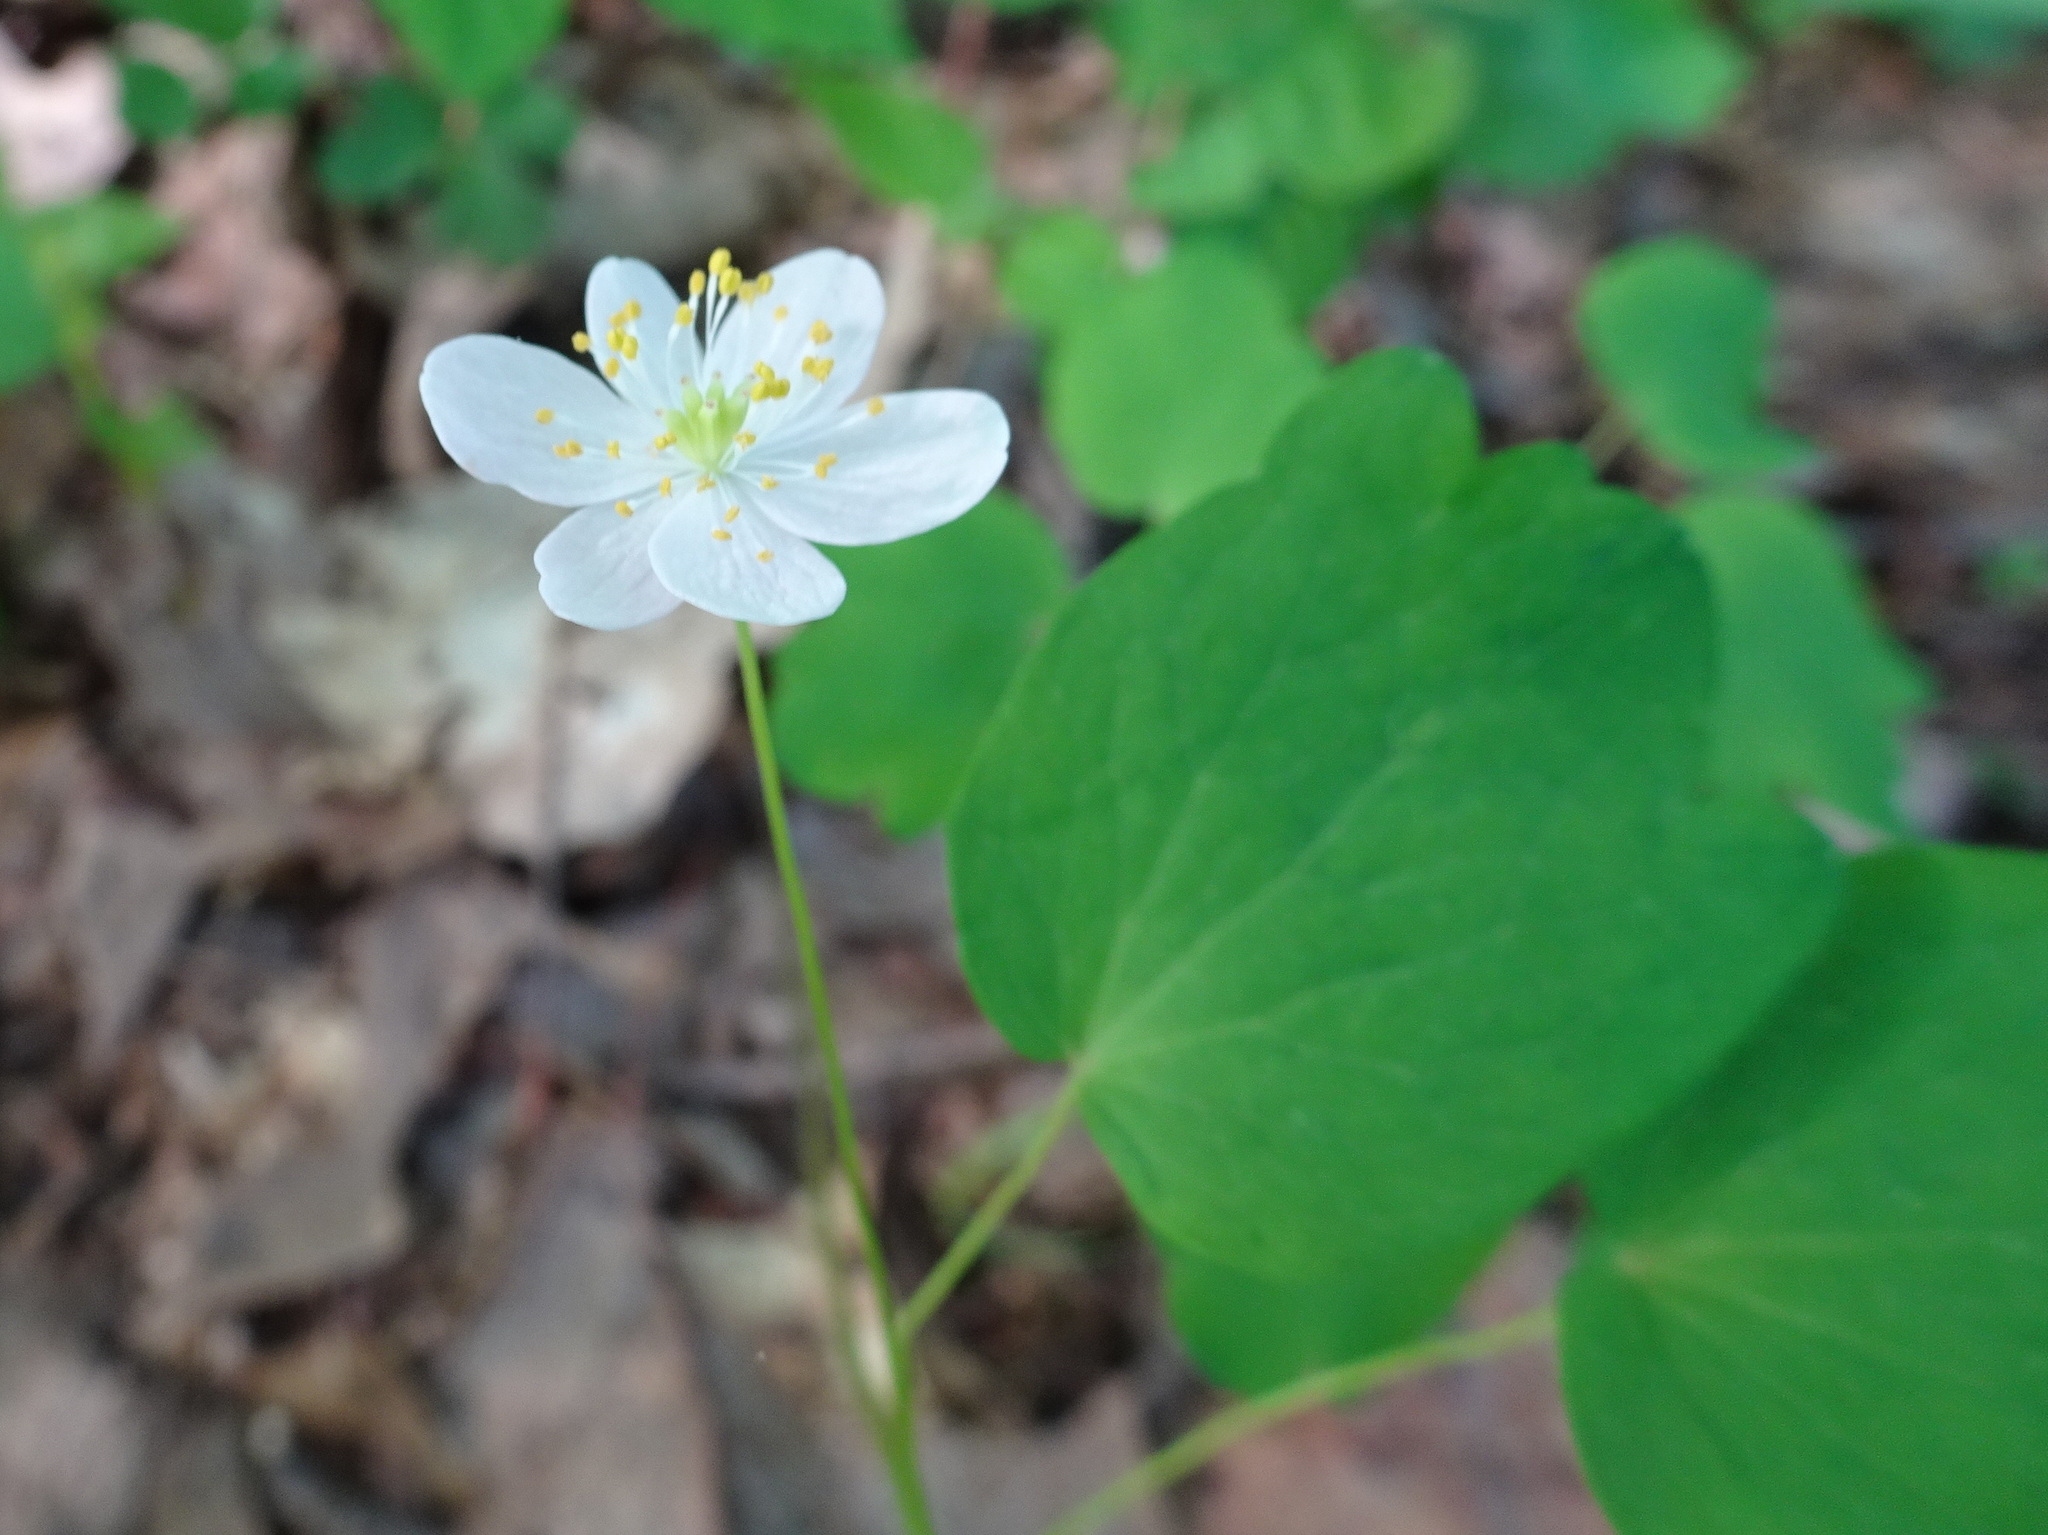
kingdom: Plantae
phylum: Tracheophyta
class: Magnoliopsida
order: Ranunculales
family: Ranunculaceae
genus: Thalictrum
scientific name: Thalictrum thalictroides
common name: Rue-anemone
